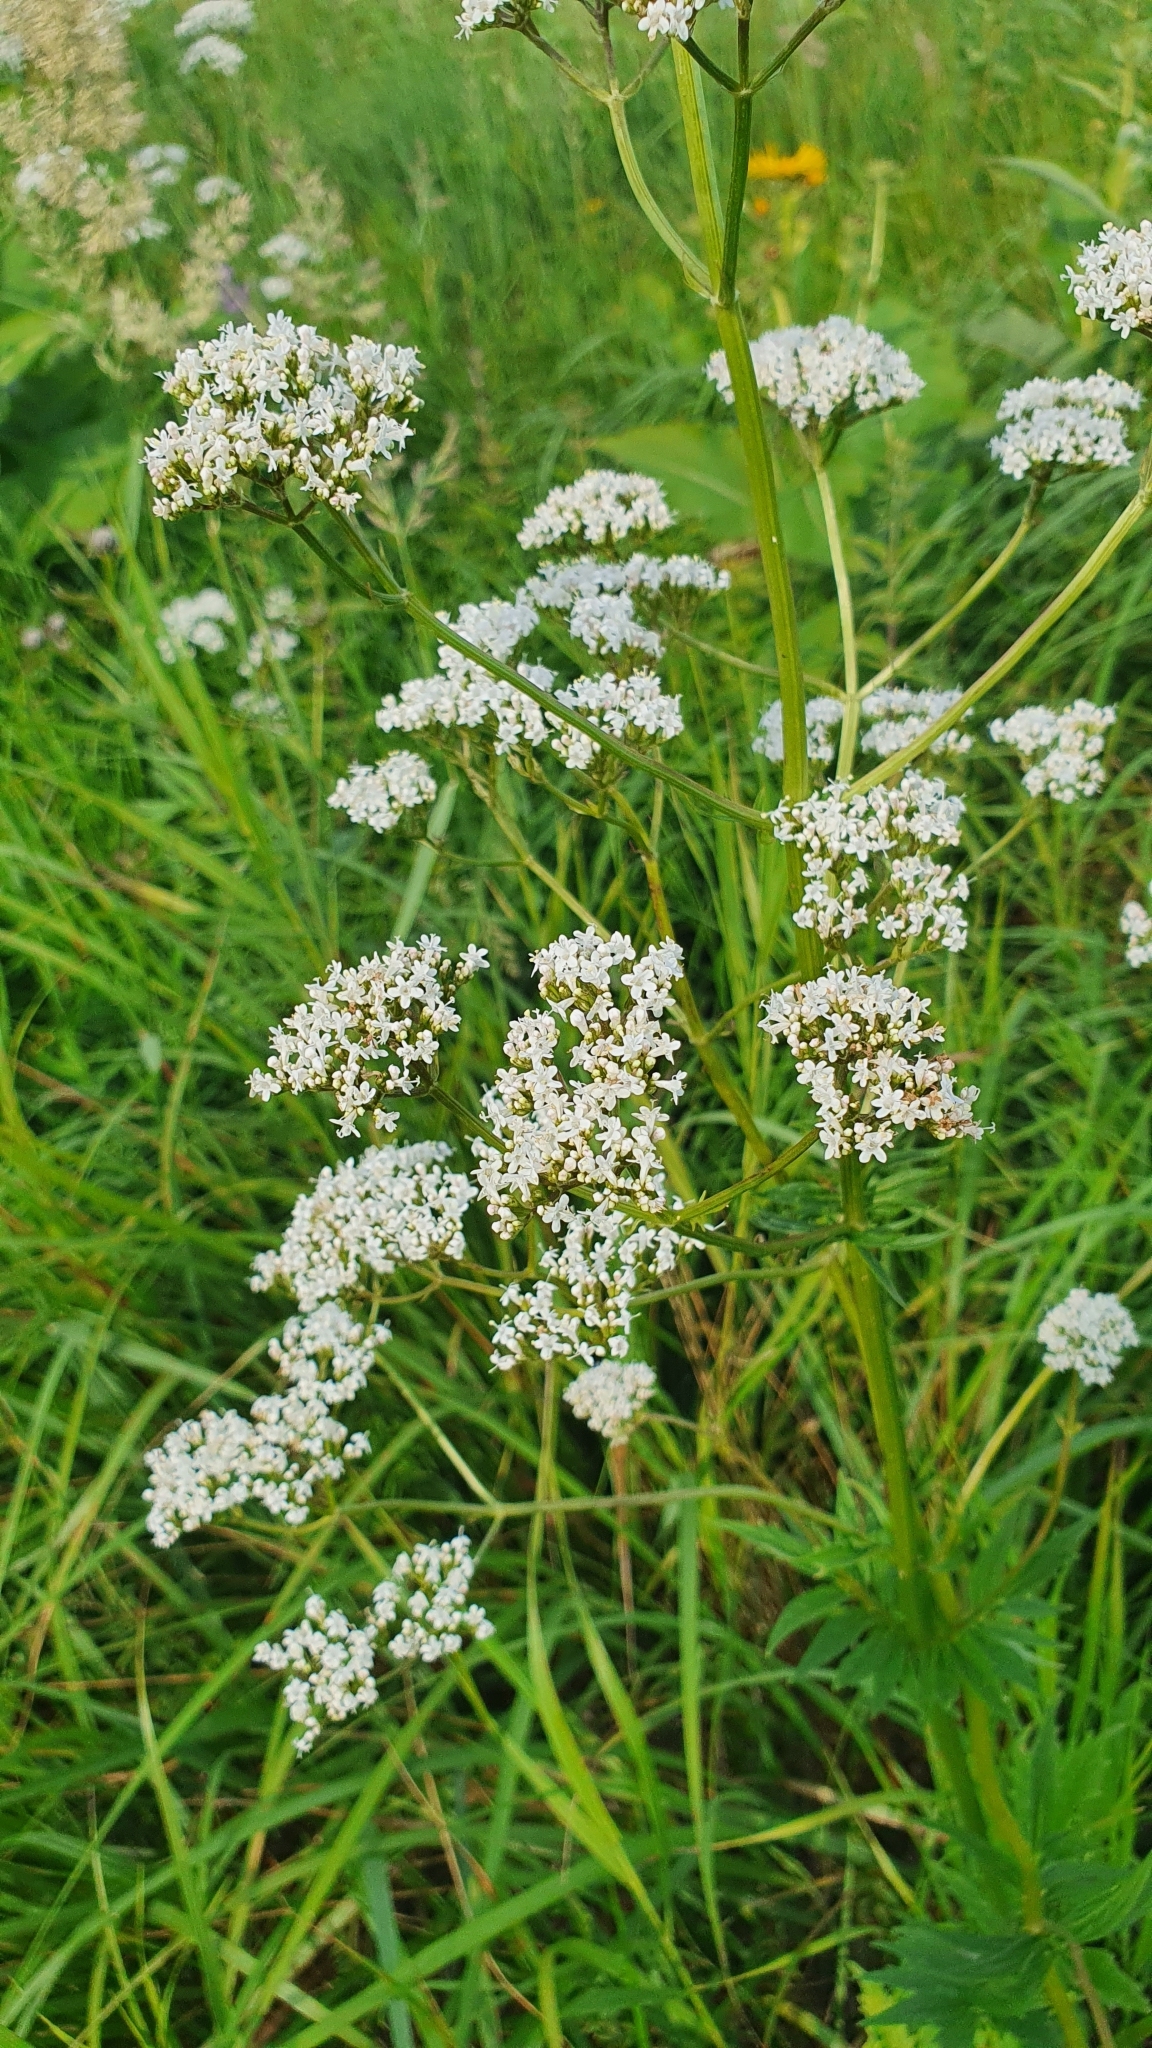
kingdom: Plantae
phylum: Tracheophyta
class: Magnoliopsida
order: Dipsacales
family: Caprifoliaceae
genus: Valeriana
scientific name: Valeriana officinalis
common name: Common valerian
